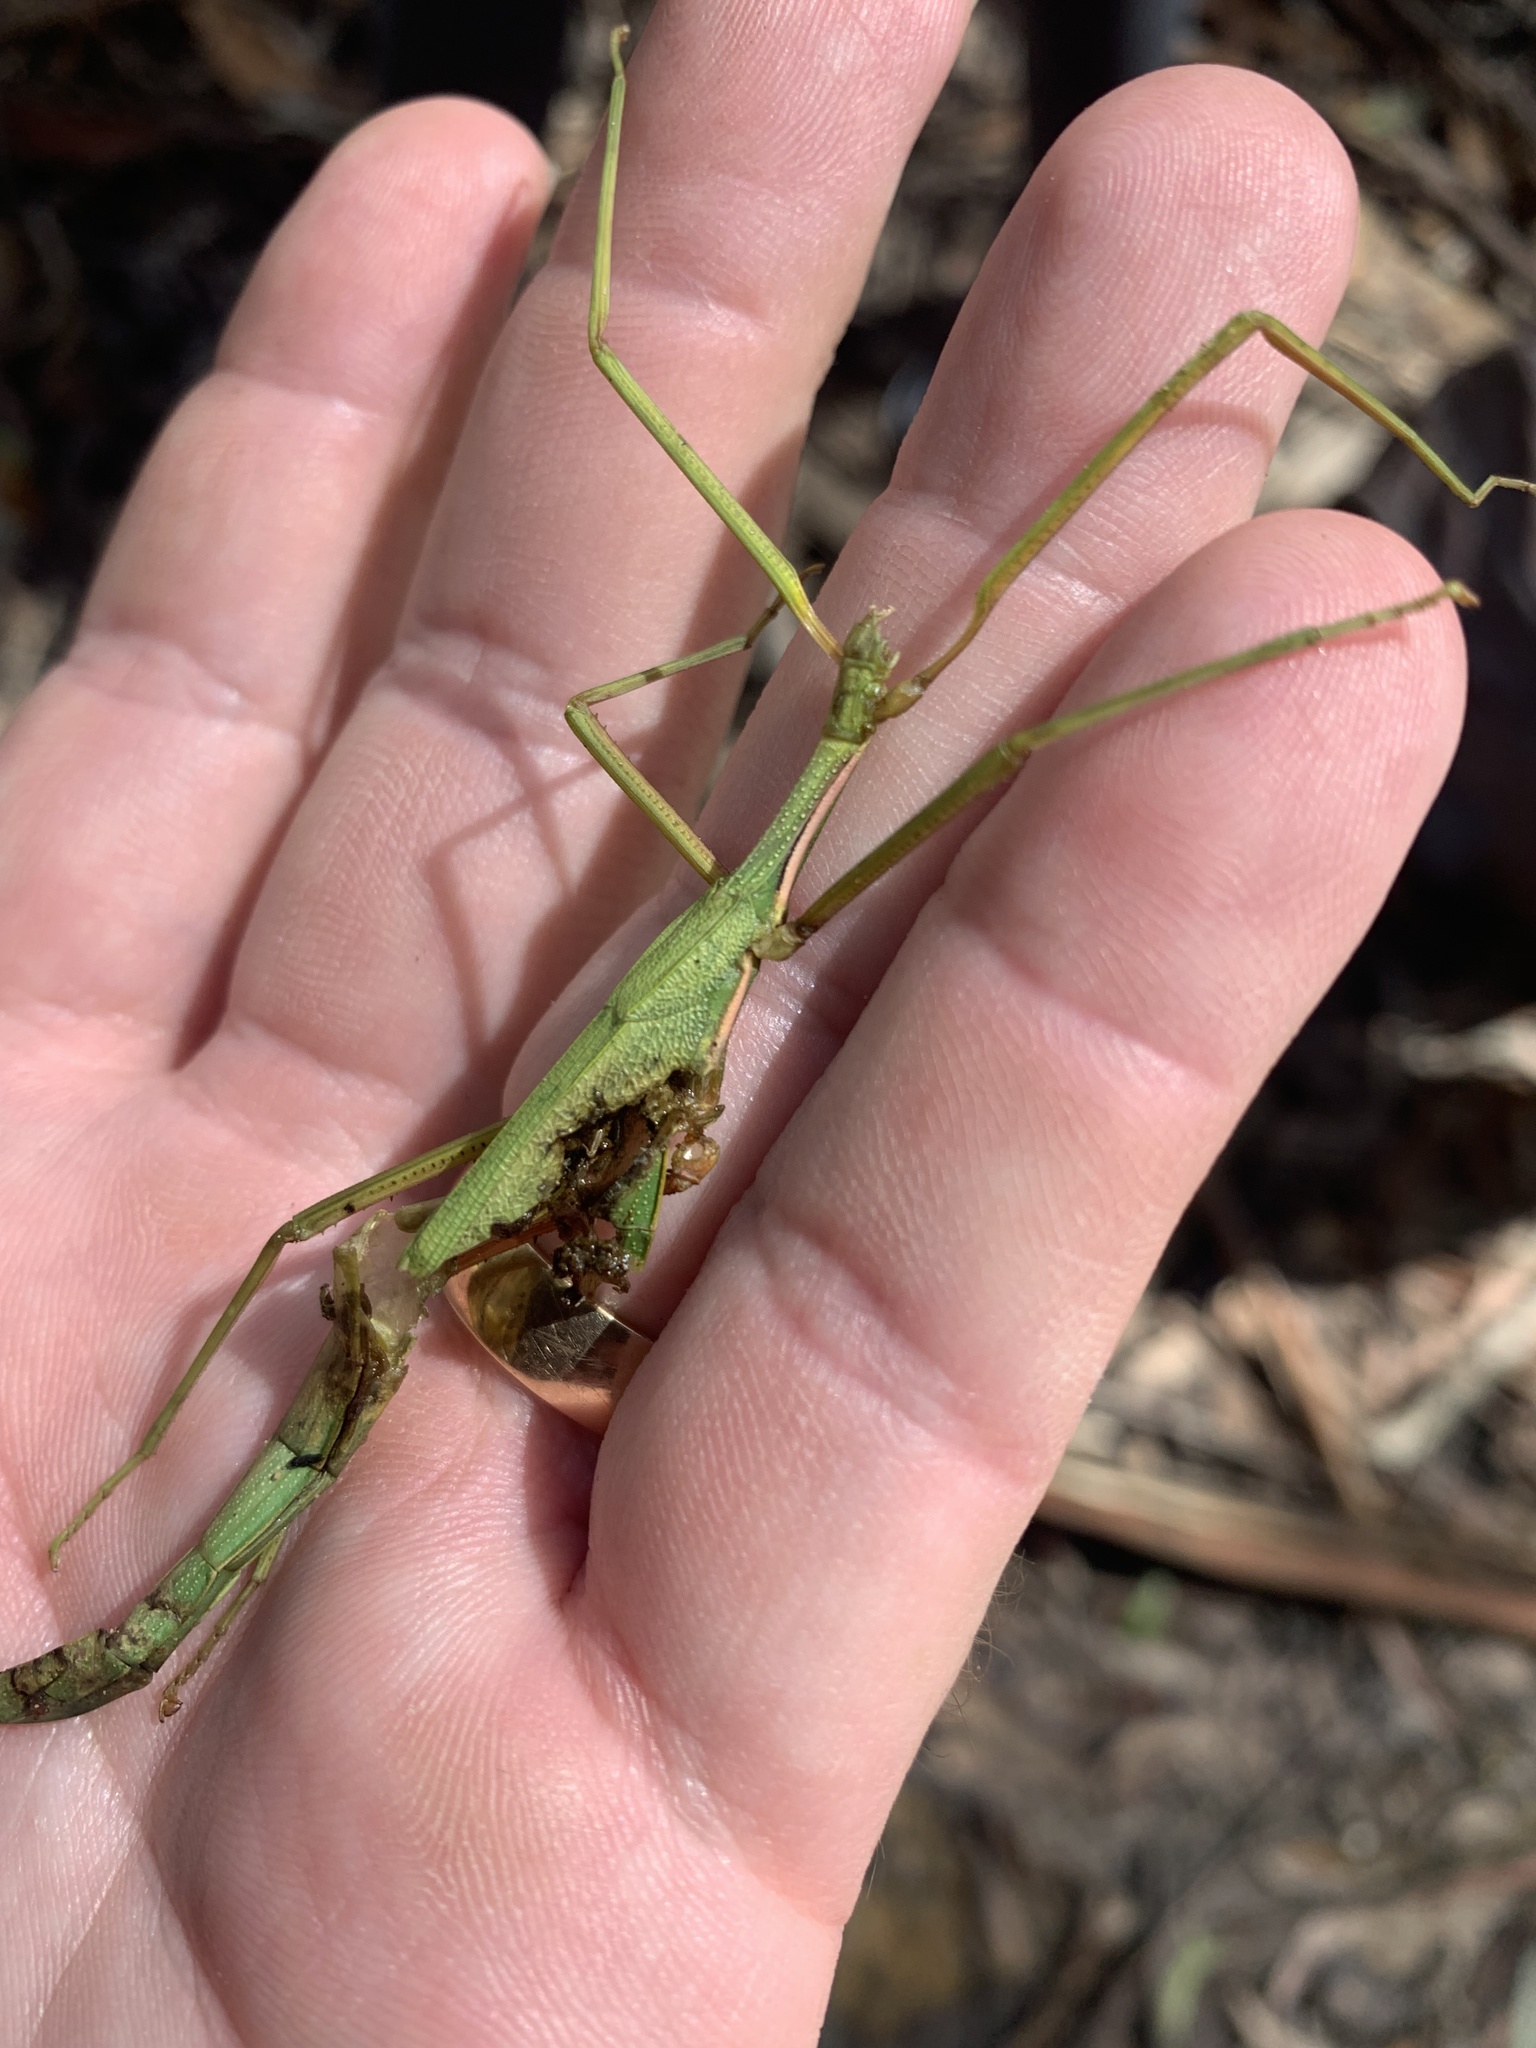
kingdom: Animalia
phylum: Arthropoda
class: Insecta
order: Phasmida
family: Phasmatidae
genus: Didymuria
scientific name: Didymuria violescens
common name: Spur-legged stick-insect
